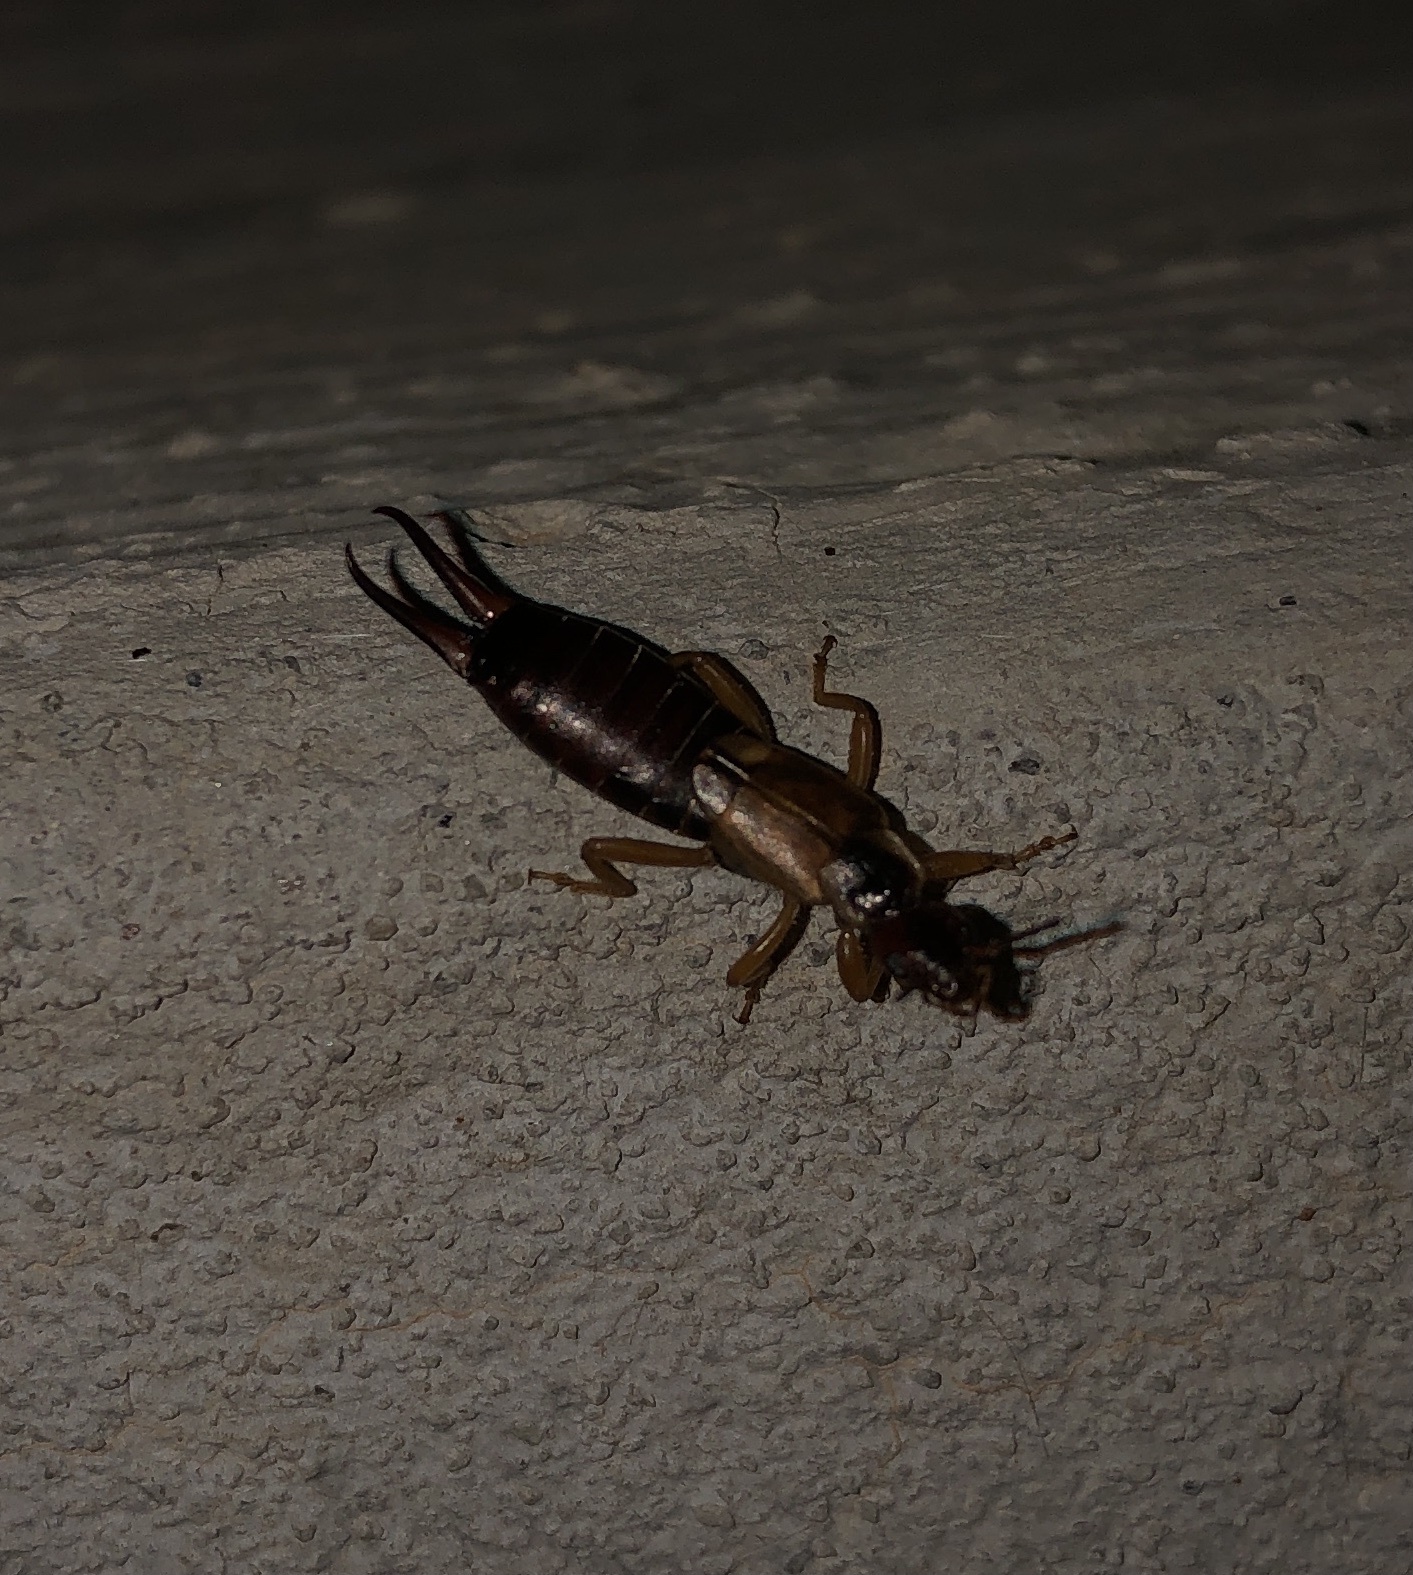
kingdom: Animalia
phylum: Arthropoda
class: Insecta
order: Dermaptera
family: Forficulidae
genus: Forficula
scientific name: Forficula
